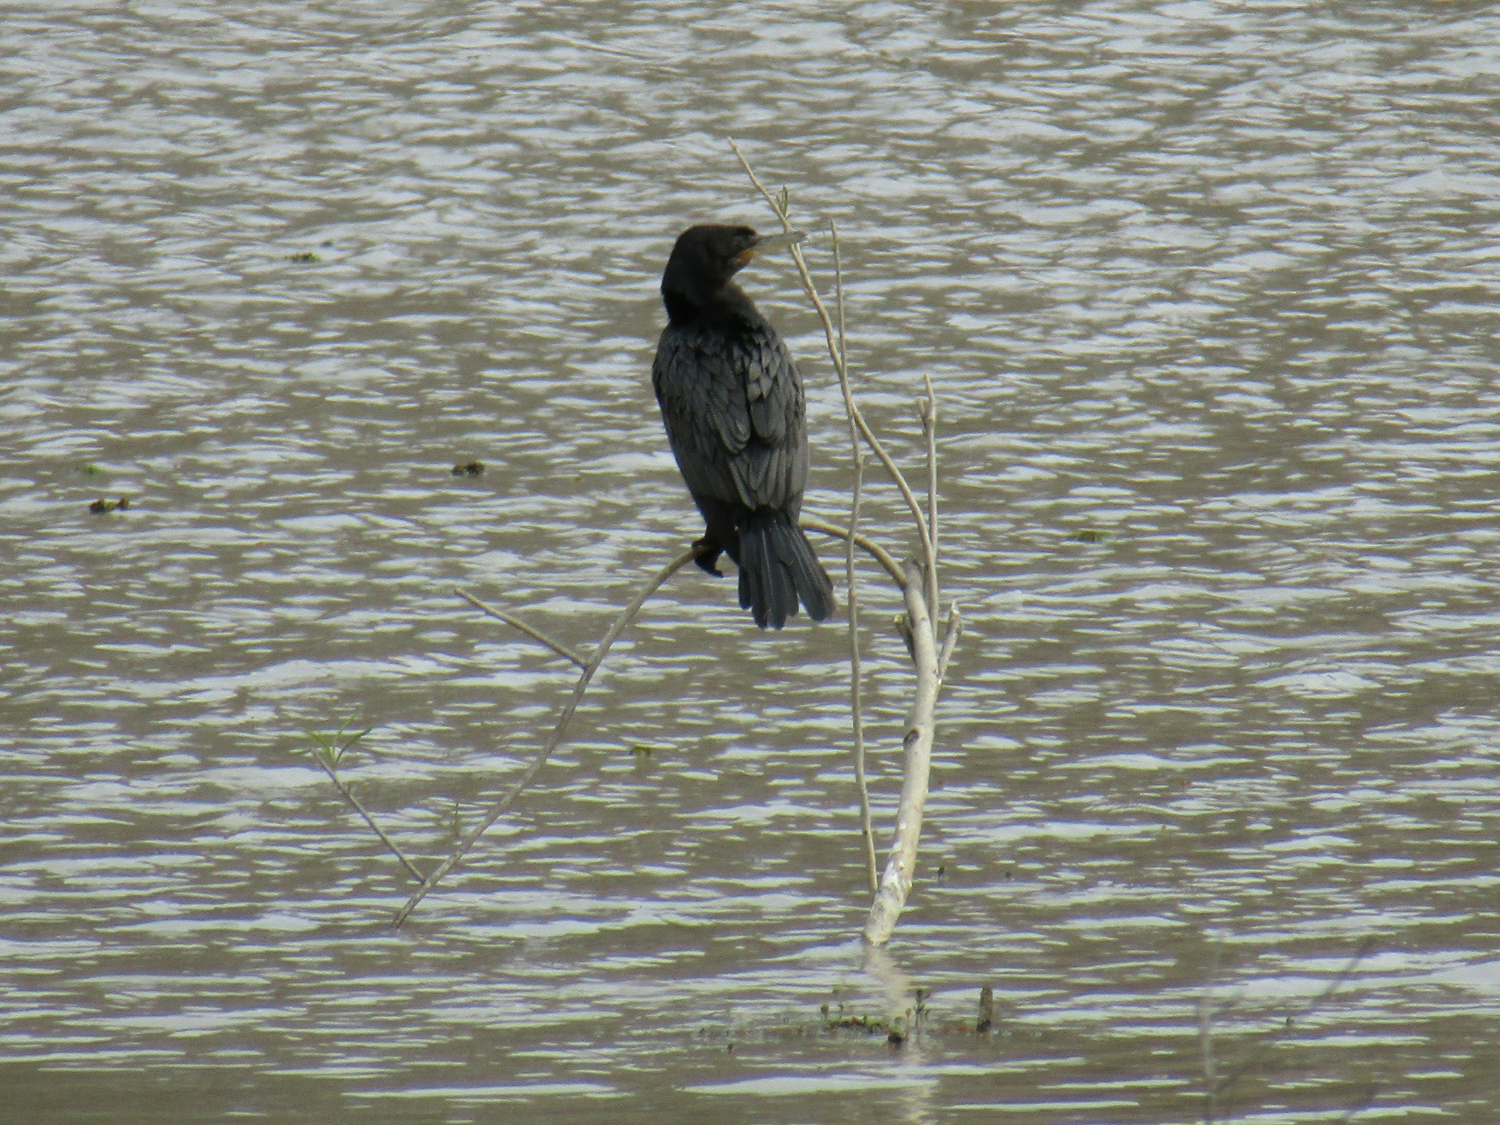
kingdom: Animalia
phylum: Chordata
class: Aves
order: Suliformes
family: Phalacrocoracidae
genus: Phalacrocorax
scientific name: Phalacrocorax brasilianus
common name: Neotropic cormorant
